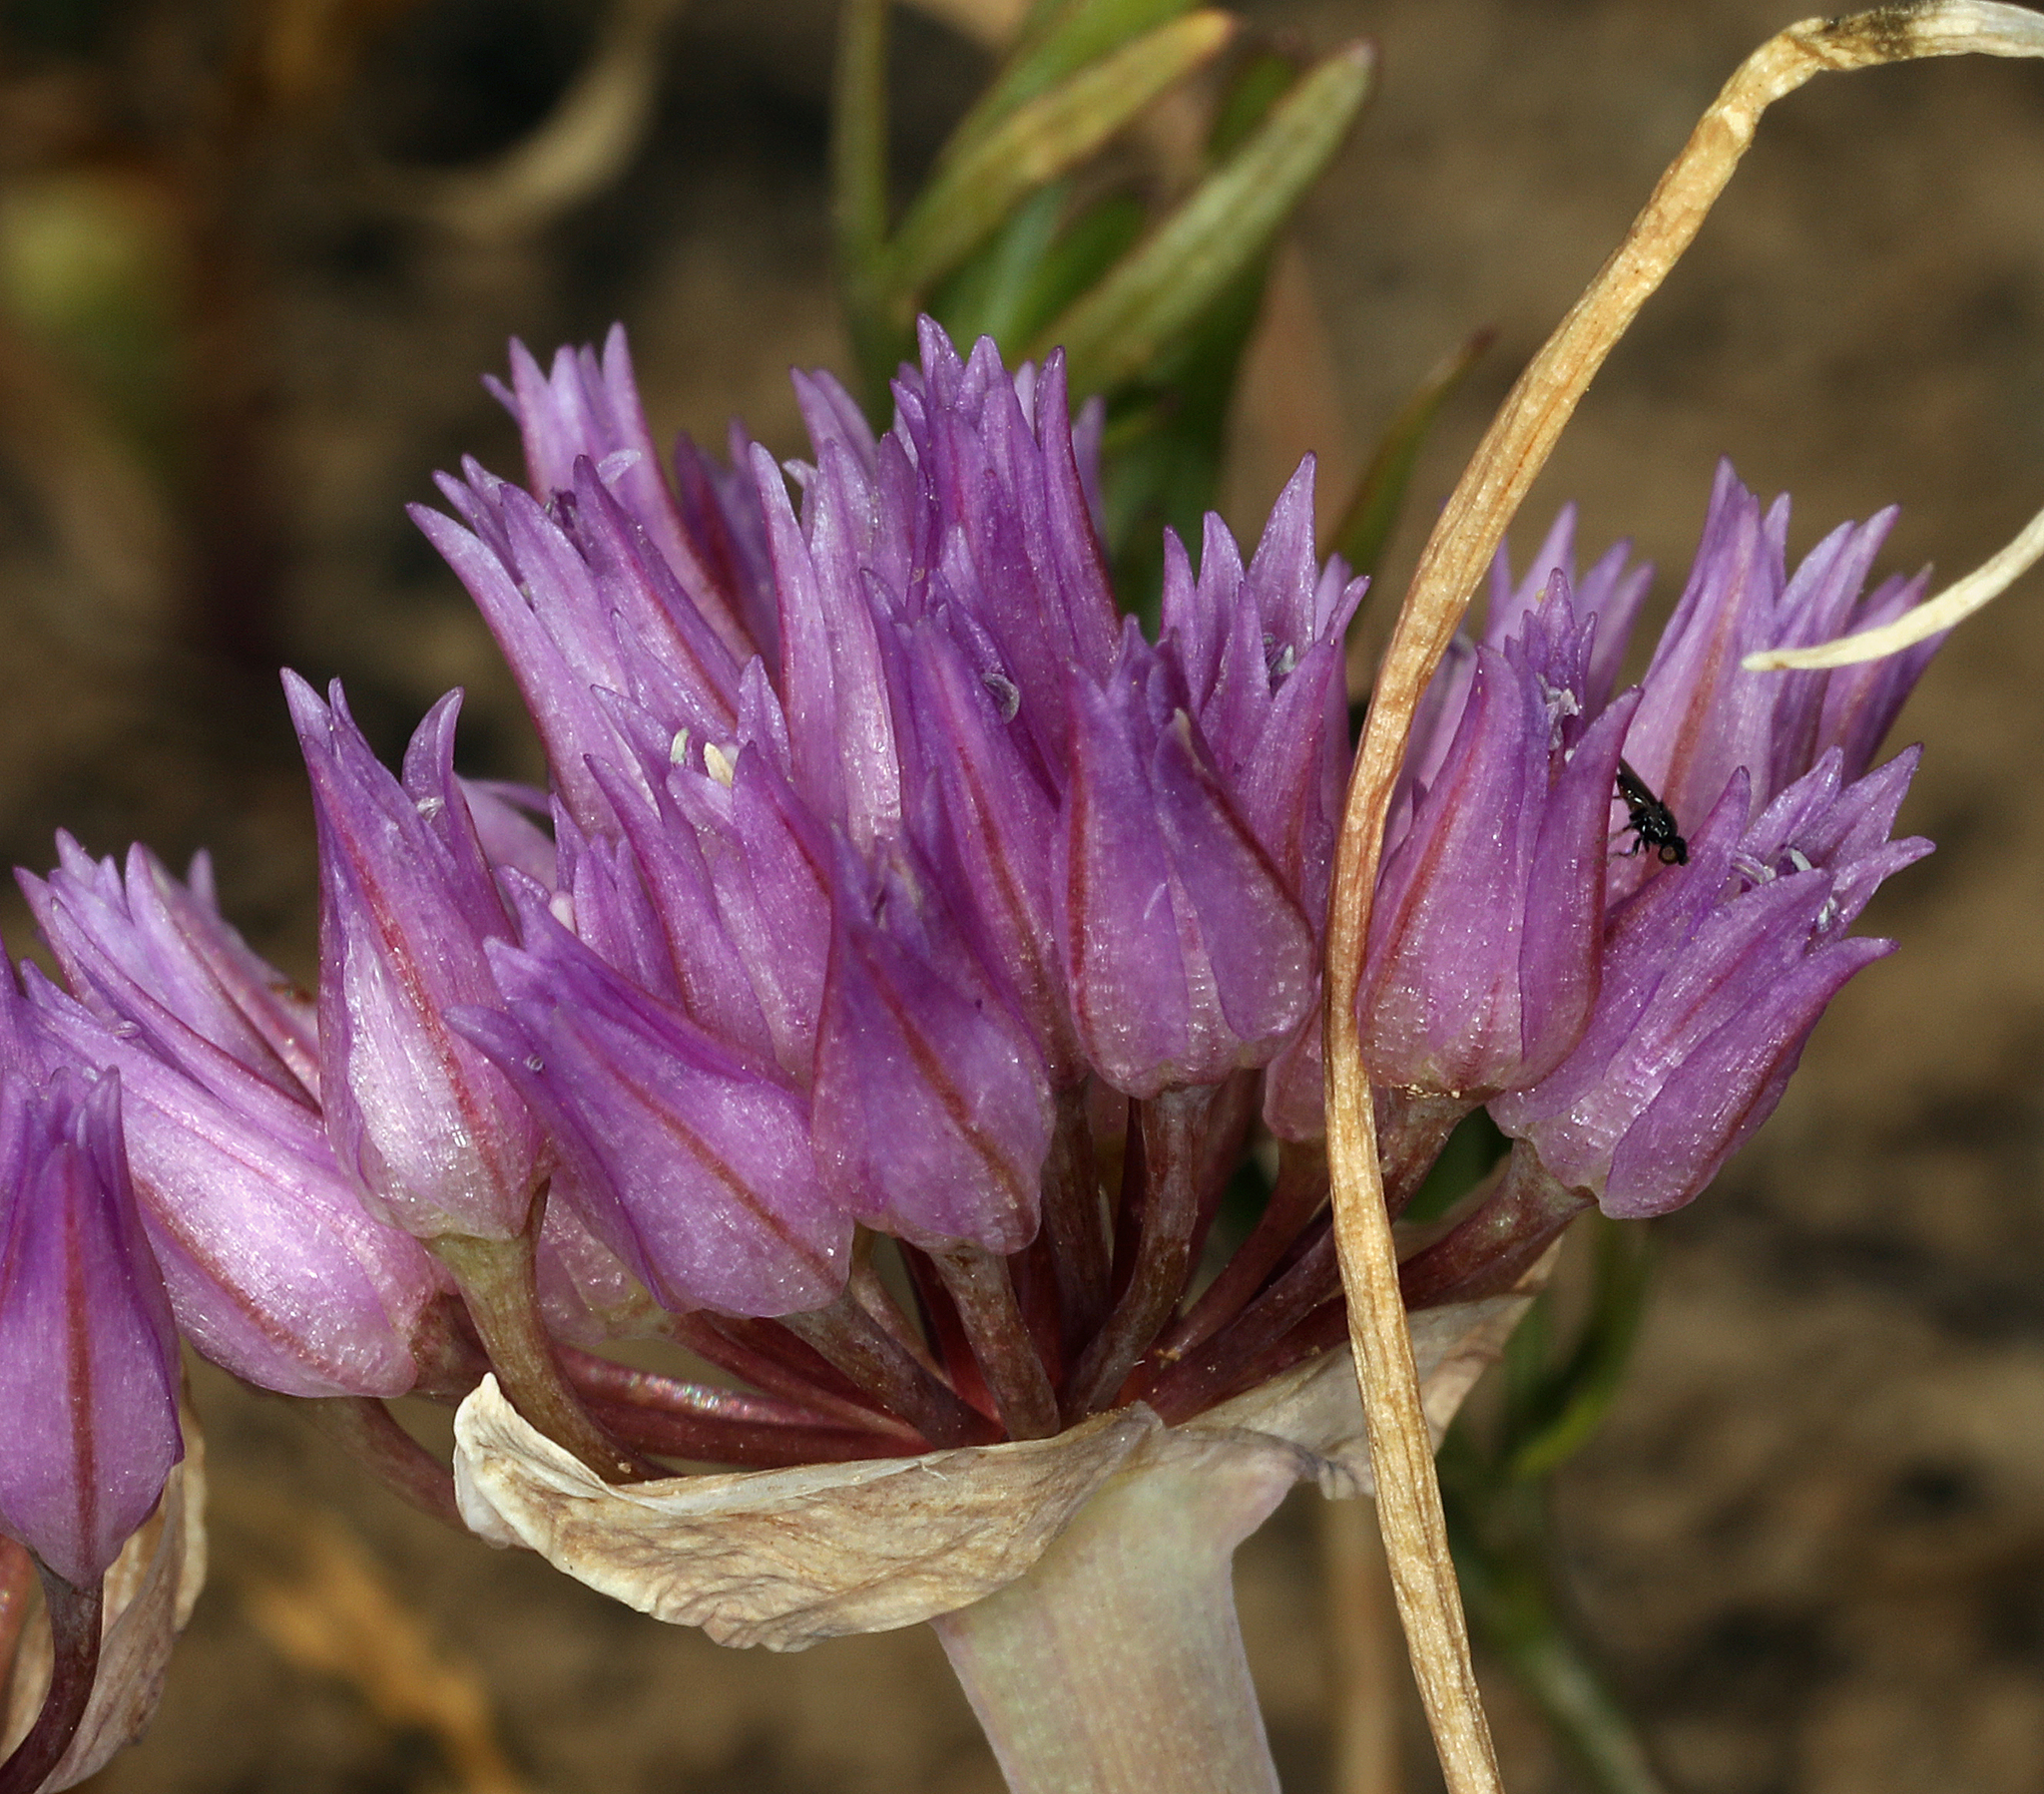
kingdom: Plantae
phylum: Tracheophyta
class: Liliopsida
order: Asparagales
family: Amaryllidaceae
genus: Allium
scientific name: Allium falcifolium
